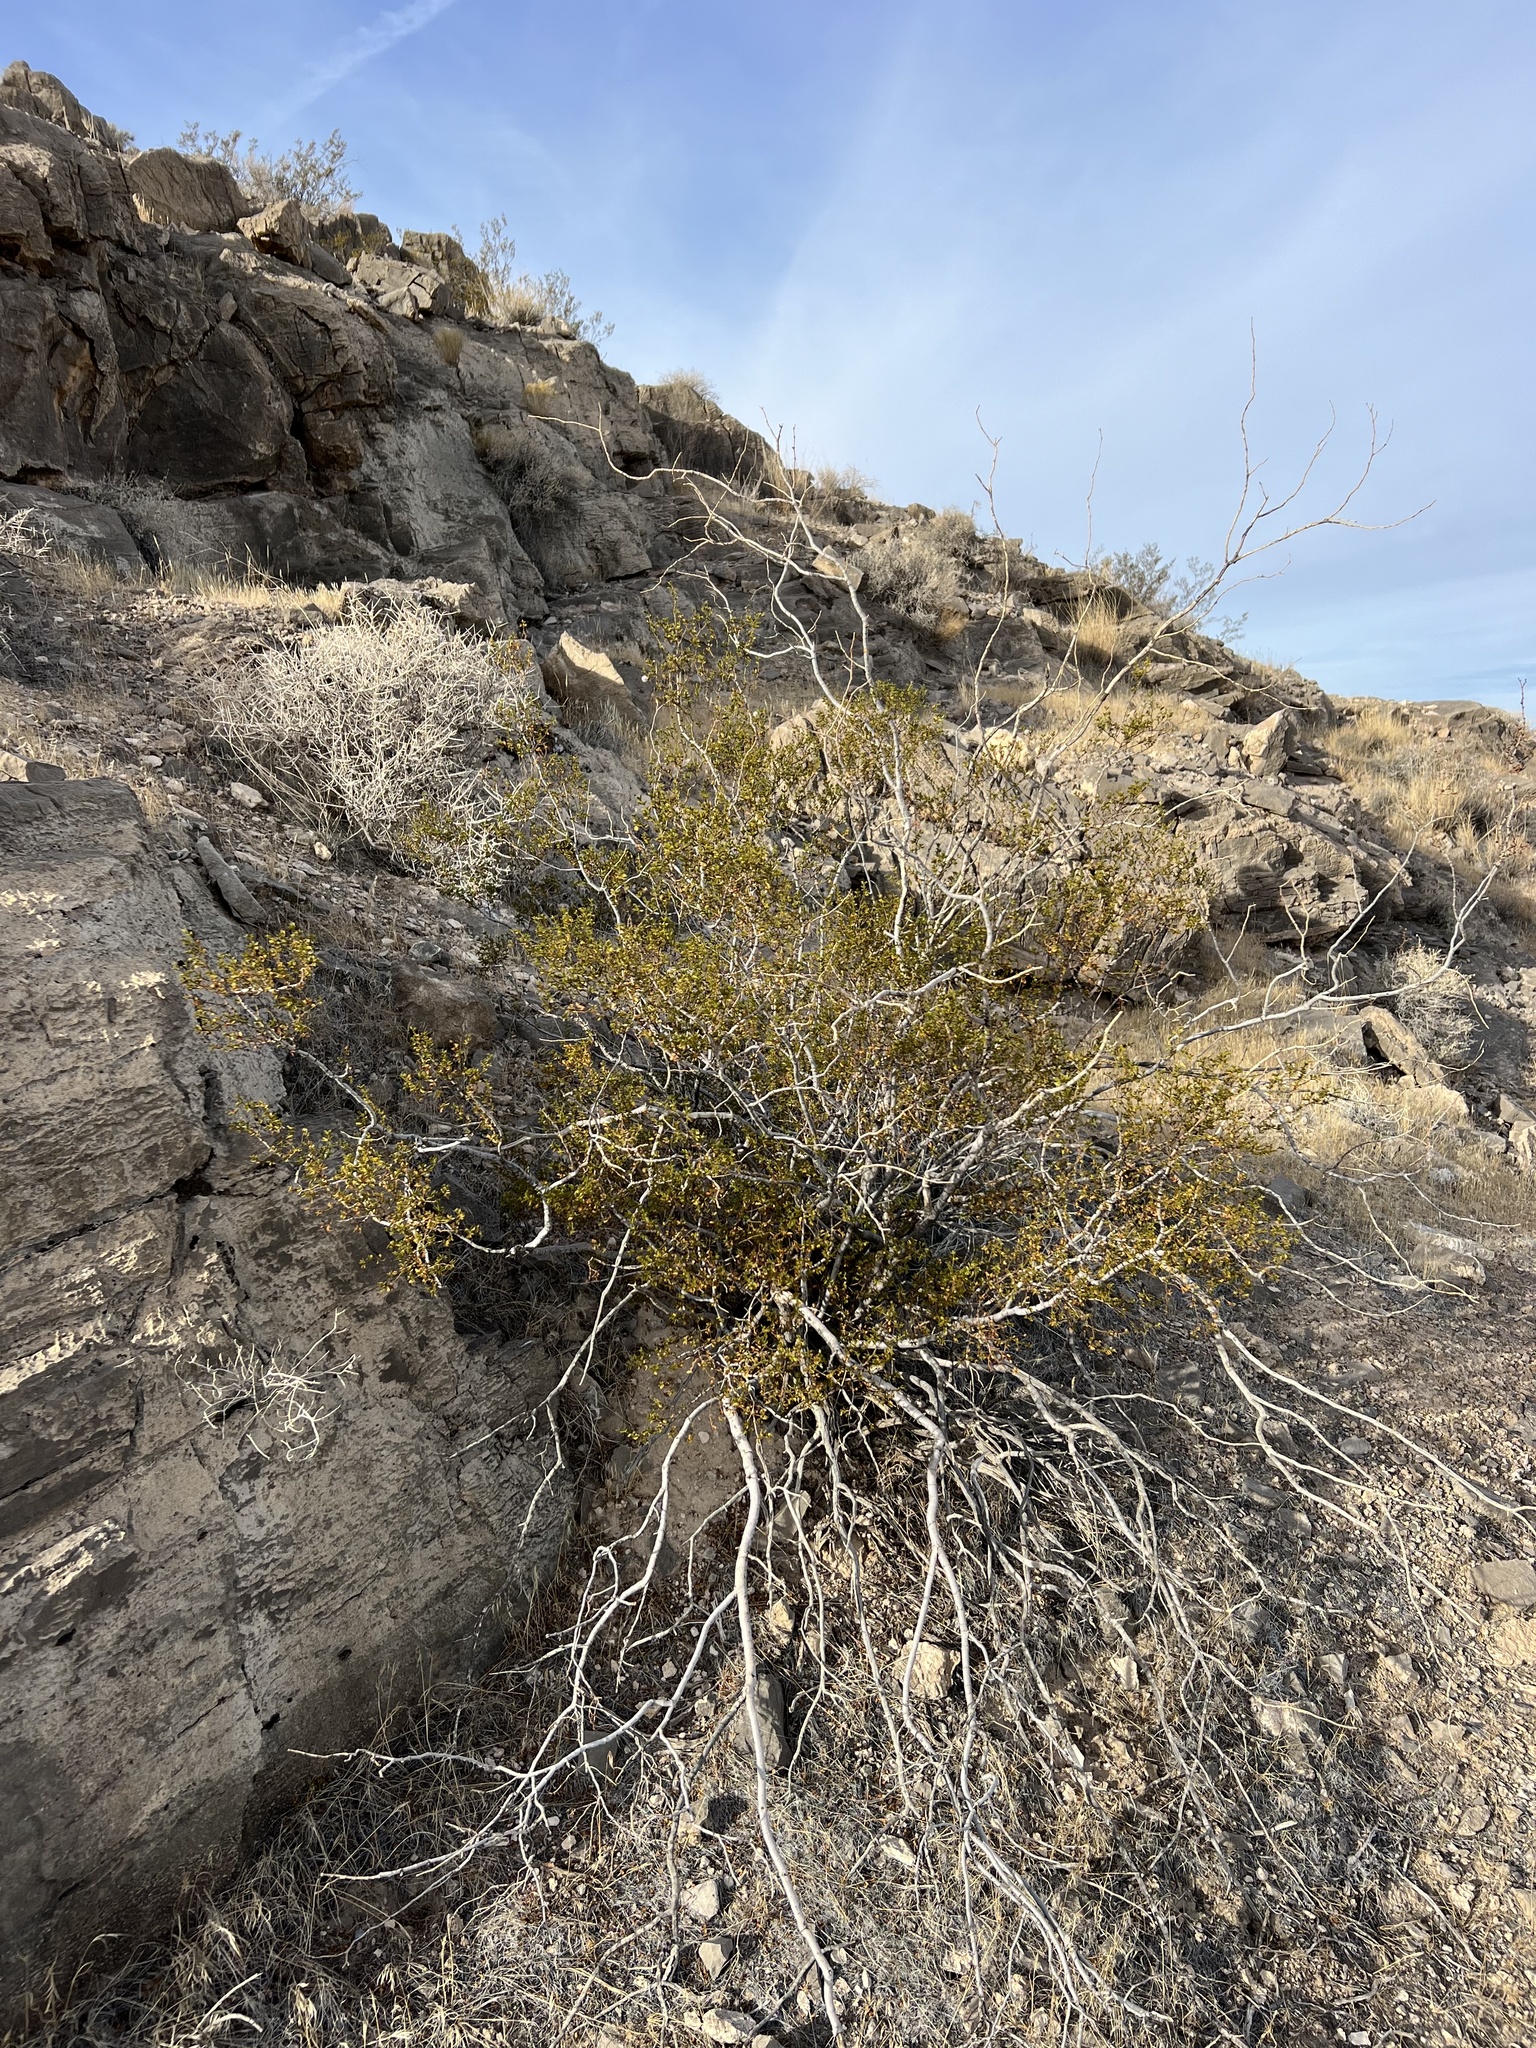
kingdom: Plantae
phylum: Tracheophyta
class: Magnoliopsida
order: Zygophyllales
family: Zygophyllaceae
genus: Larrea
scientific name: Larrea tridentata
